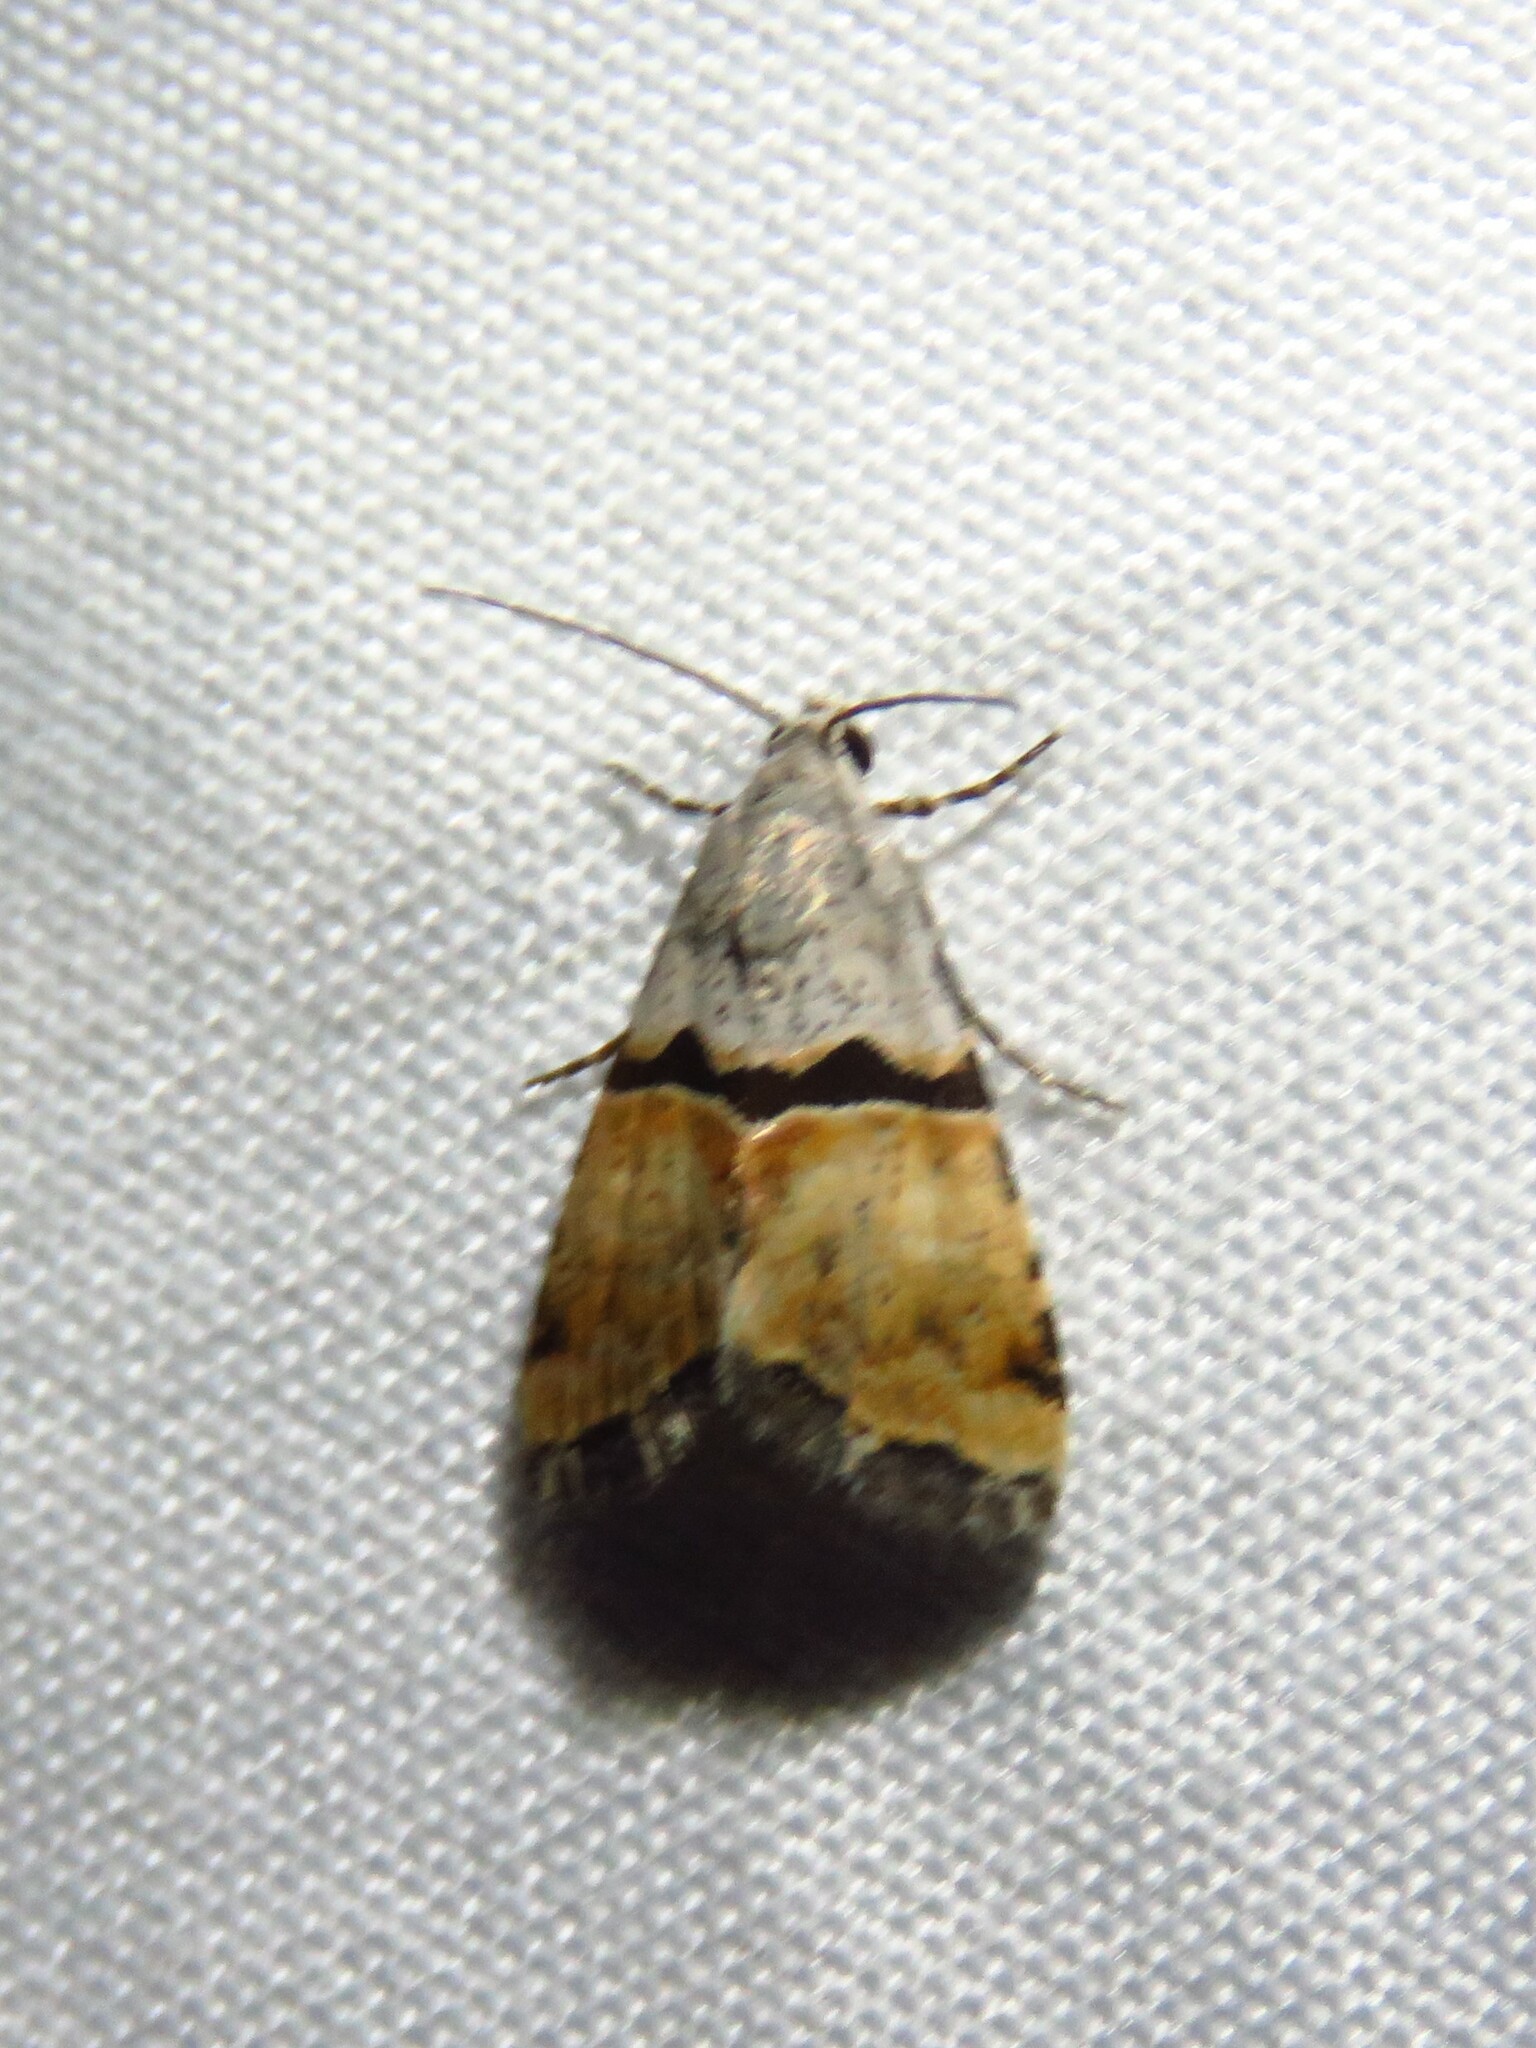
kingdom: Animalia
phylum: Arthropoda
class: Insecta
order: Lepidoptera
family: Noctuidae
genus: Cobubatha
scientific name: Cobubatha orthozona
